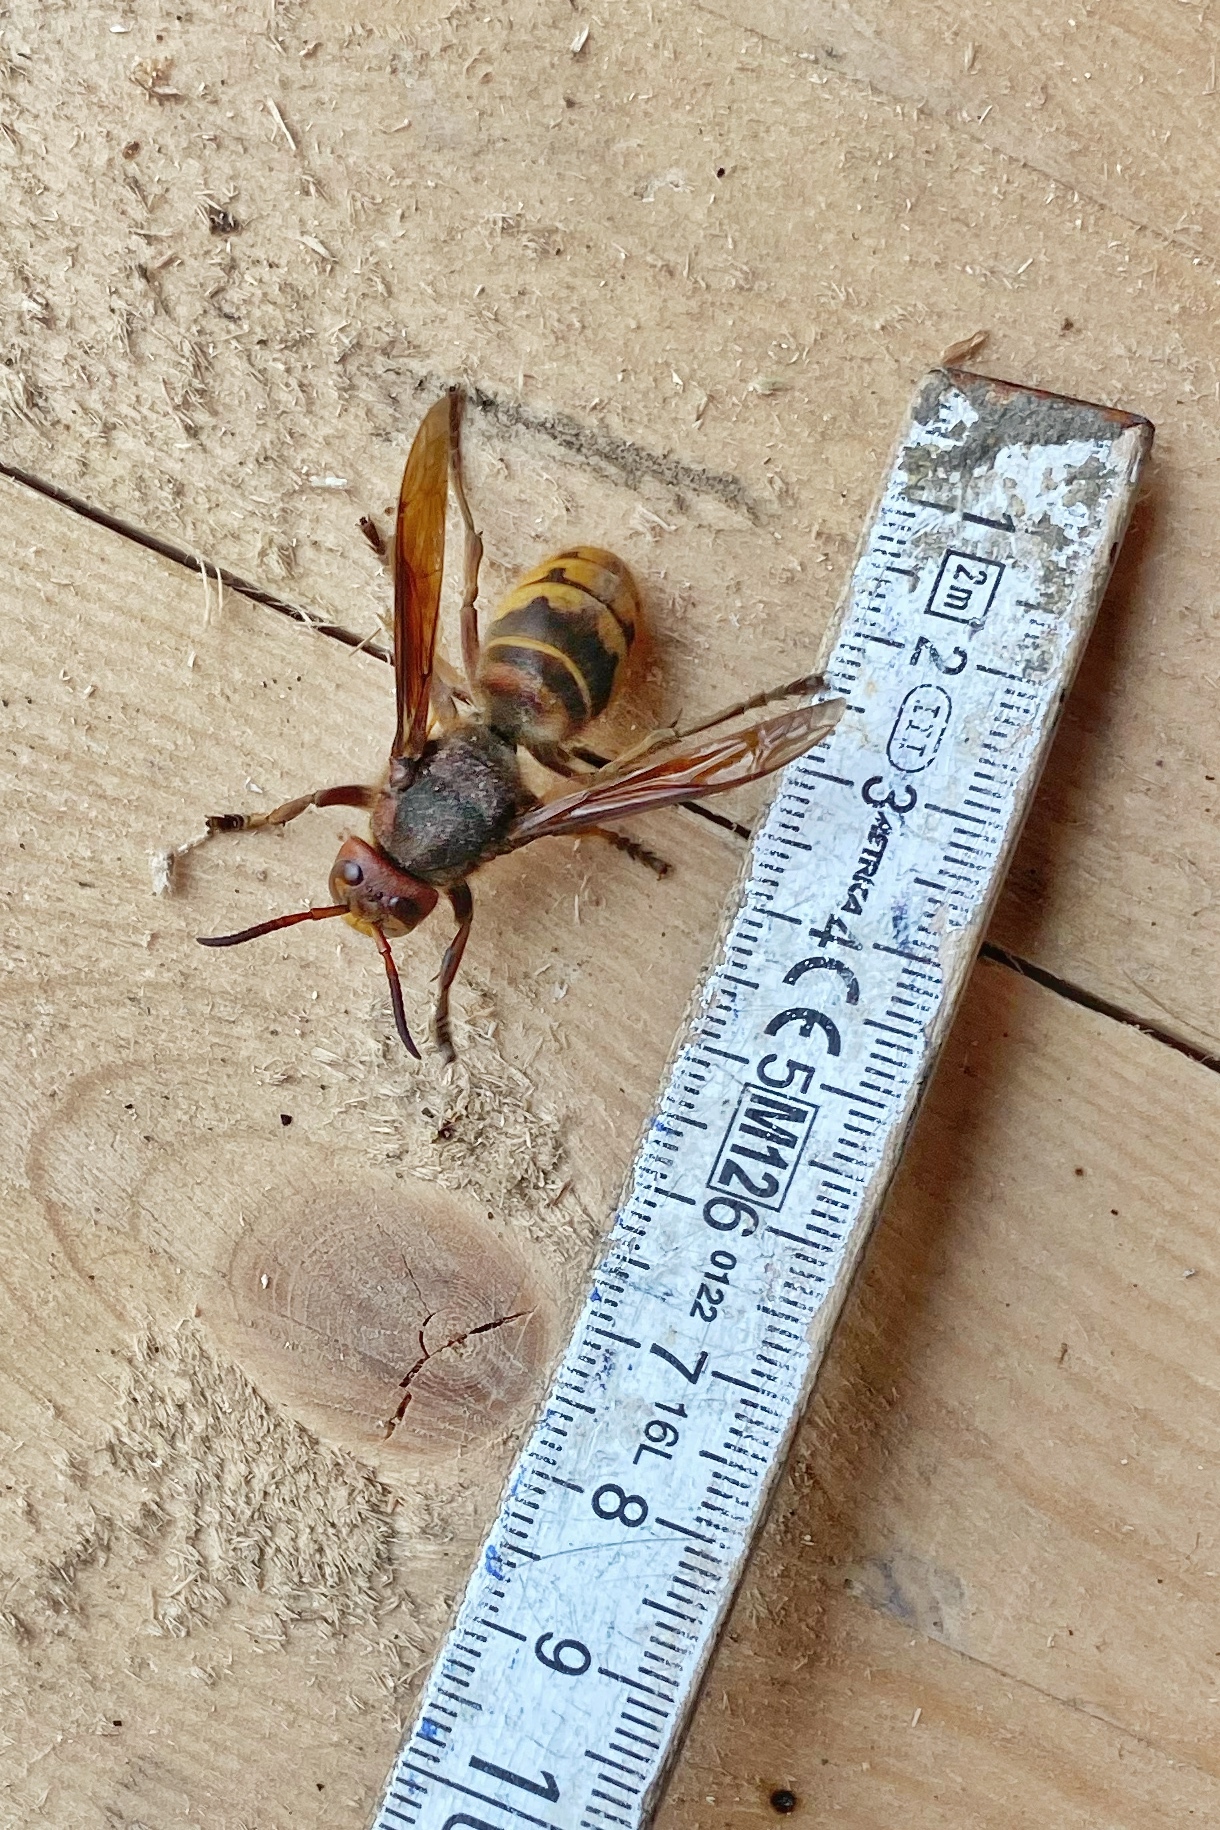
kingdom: Animalia
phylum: Arthropoda
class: Insecta
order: Hymenoptera
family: Vespidae
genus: Vespa
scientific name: Vespa crabro
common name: Hornet
